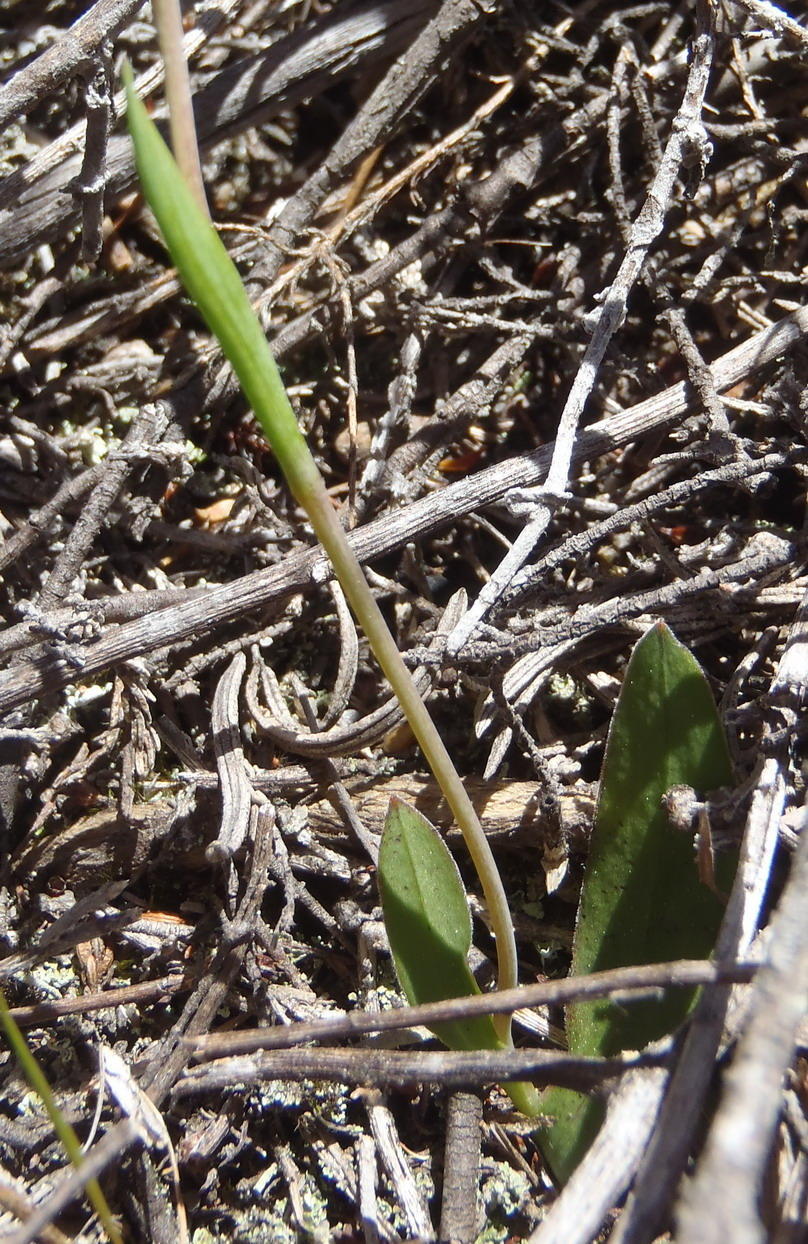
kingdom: Plantae
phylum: Tracheophyta
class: Liliopsida
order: Asparagales
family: Iridaceae
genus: Geissorhiza
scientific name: Geissorhiza ovata
